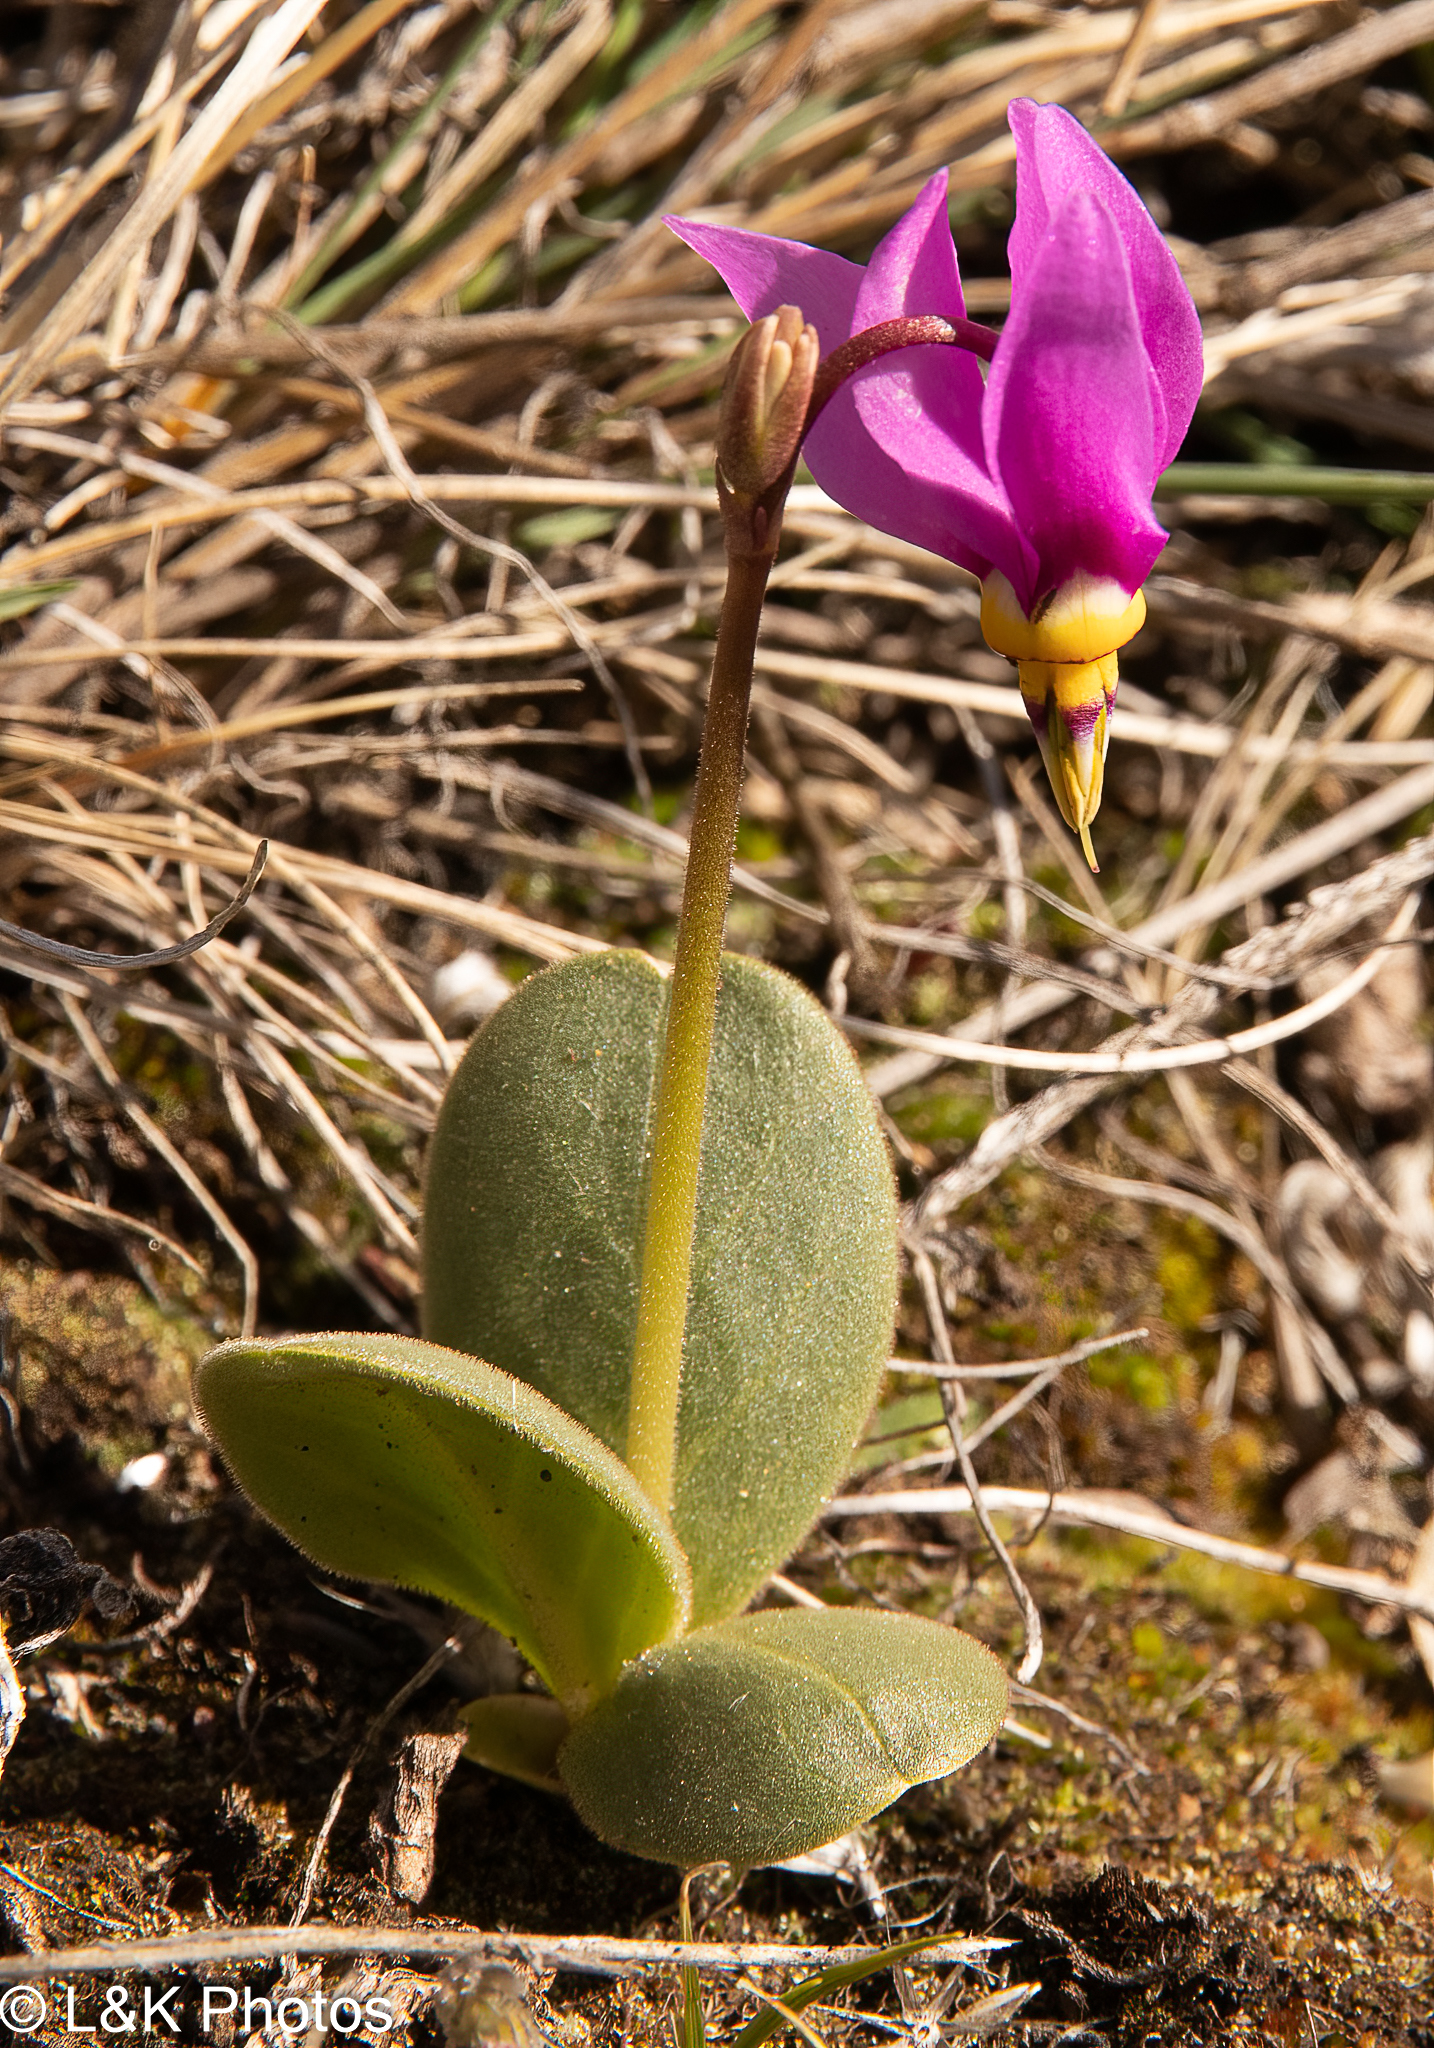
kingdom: Plantae
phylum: Tracheophyta
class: Magnoliopsida
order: Ericales
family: Primulaceae
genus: Dodecatheon
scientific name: Dodecatheon conjugens
